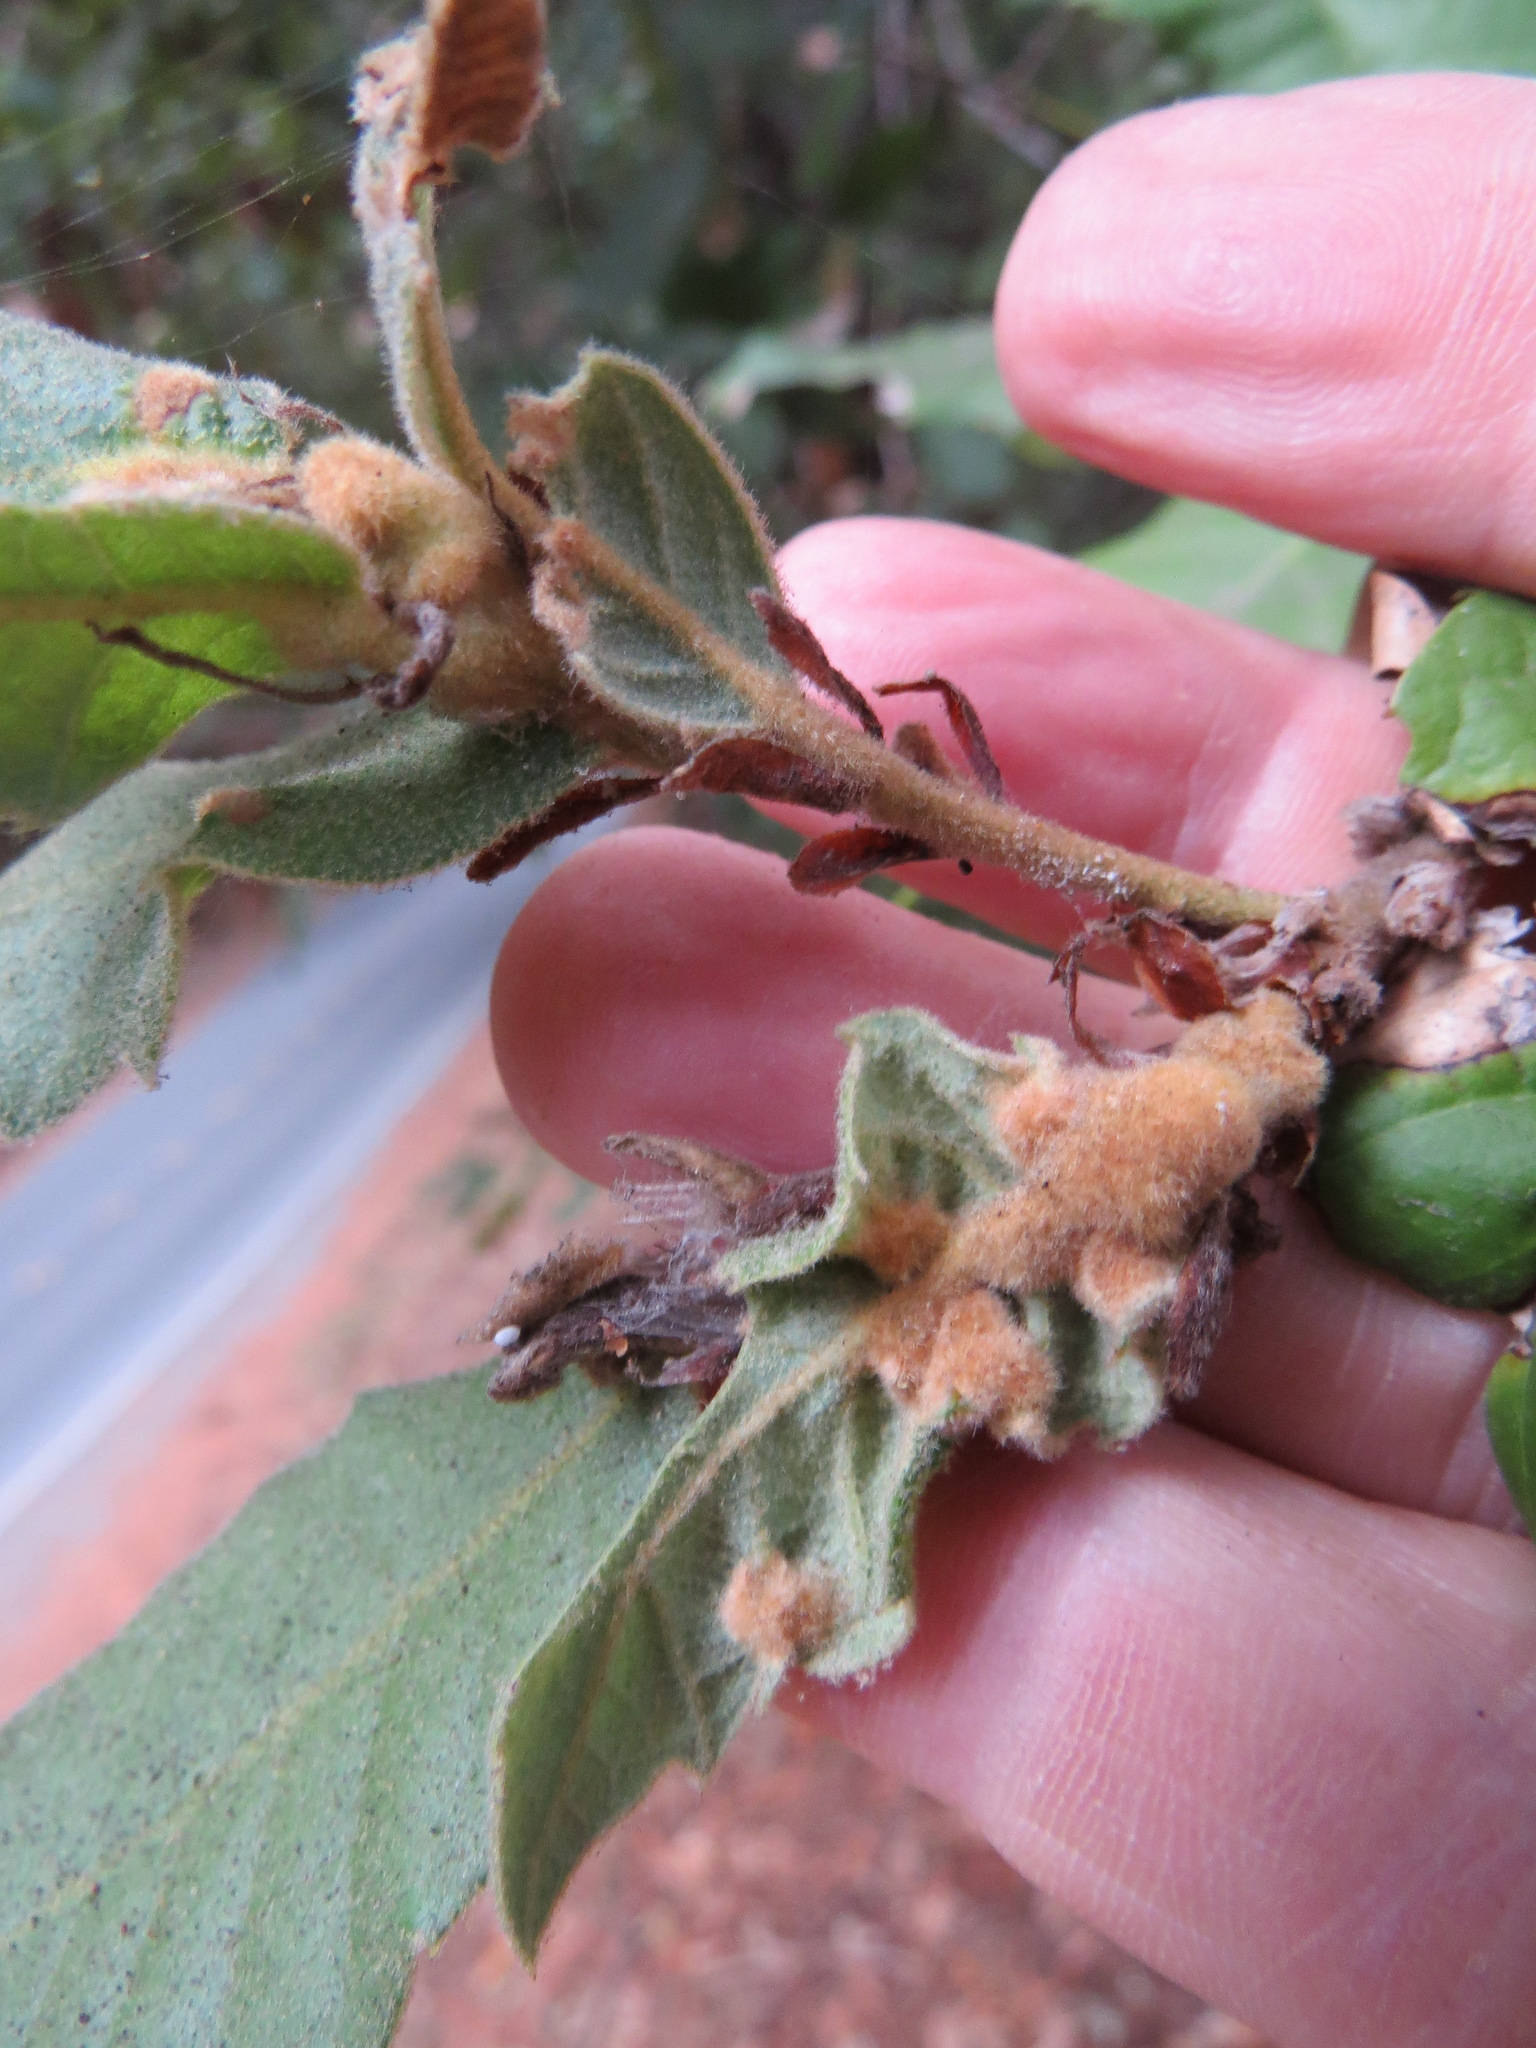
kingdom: Plantae
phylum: Tracheophyta
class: Magnoliopsida
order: Fagales
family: Fagaceae
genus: Notholithocarpus
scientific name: Notholithocarpus densiflorus
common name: Tan bark oak
